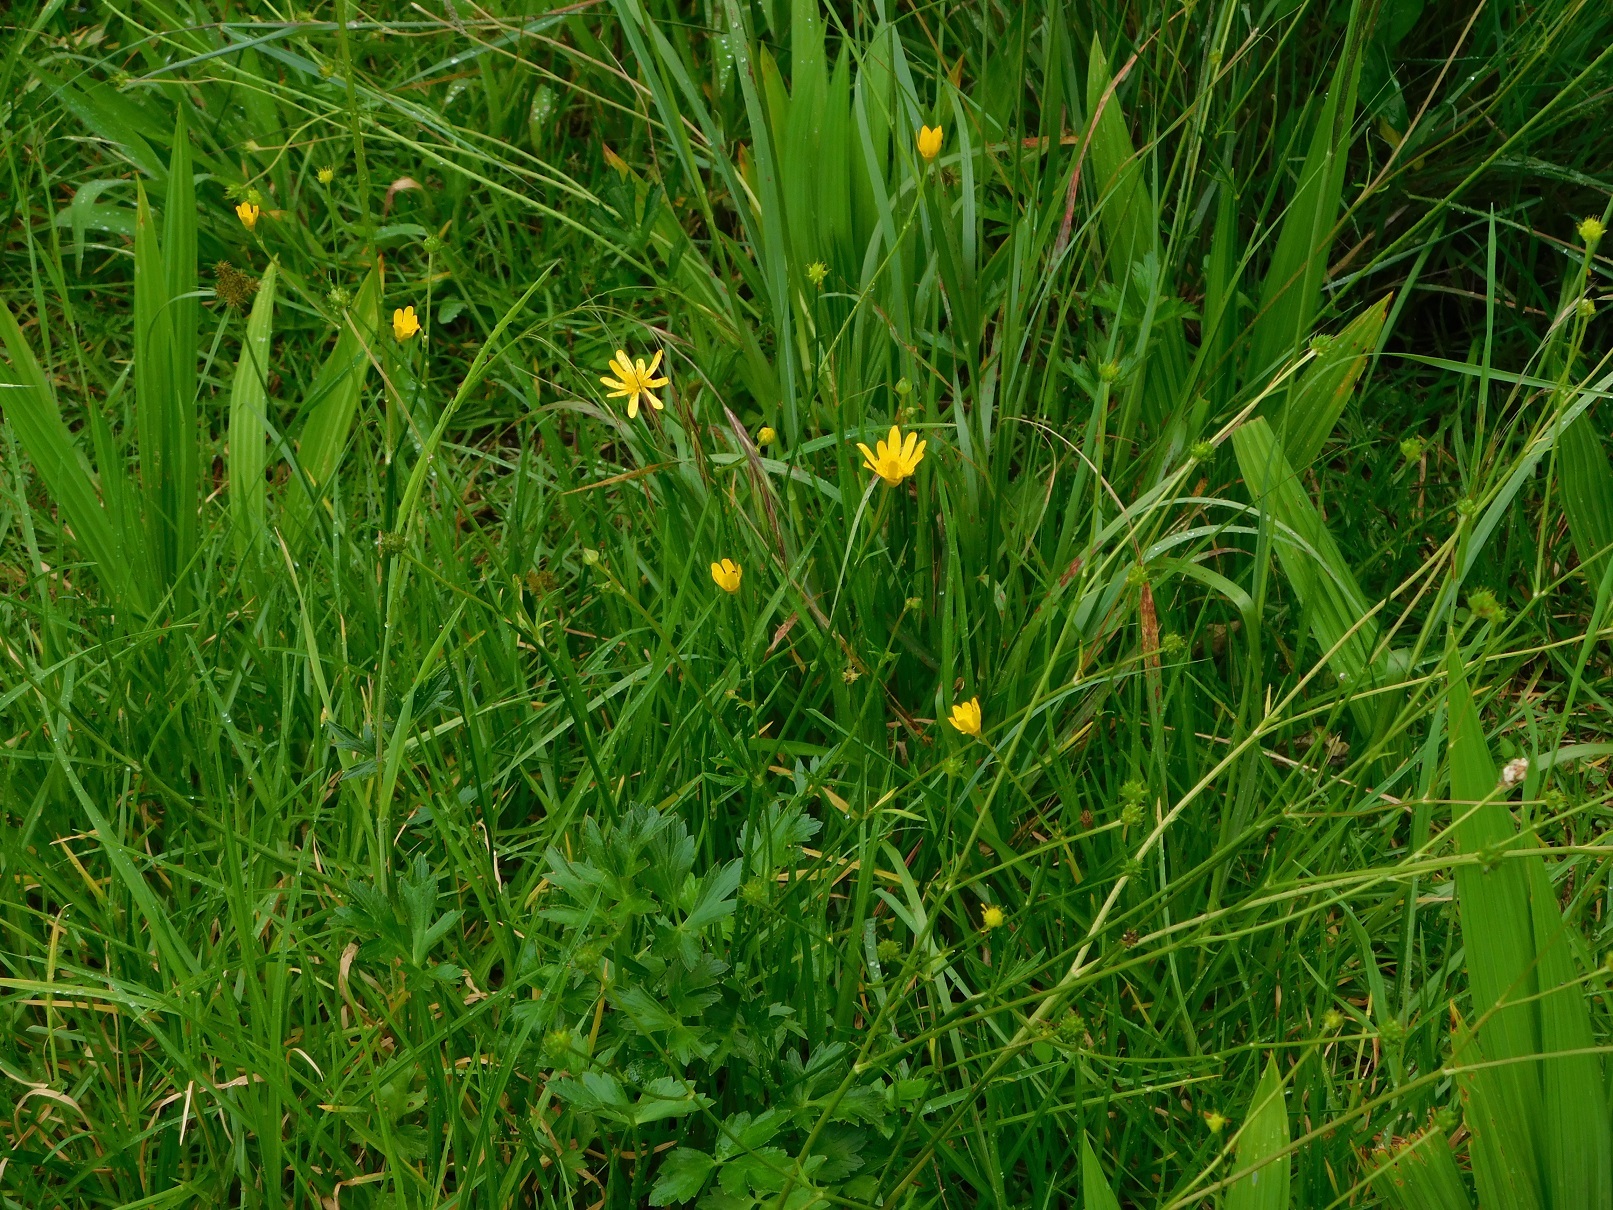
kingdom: Plantae
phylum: Tracheophyta
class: Magnoliopsida
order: Ranunculales
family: Ranunculaceae
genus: Ranunculus
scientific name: Ranunculus petiolaris
